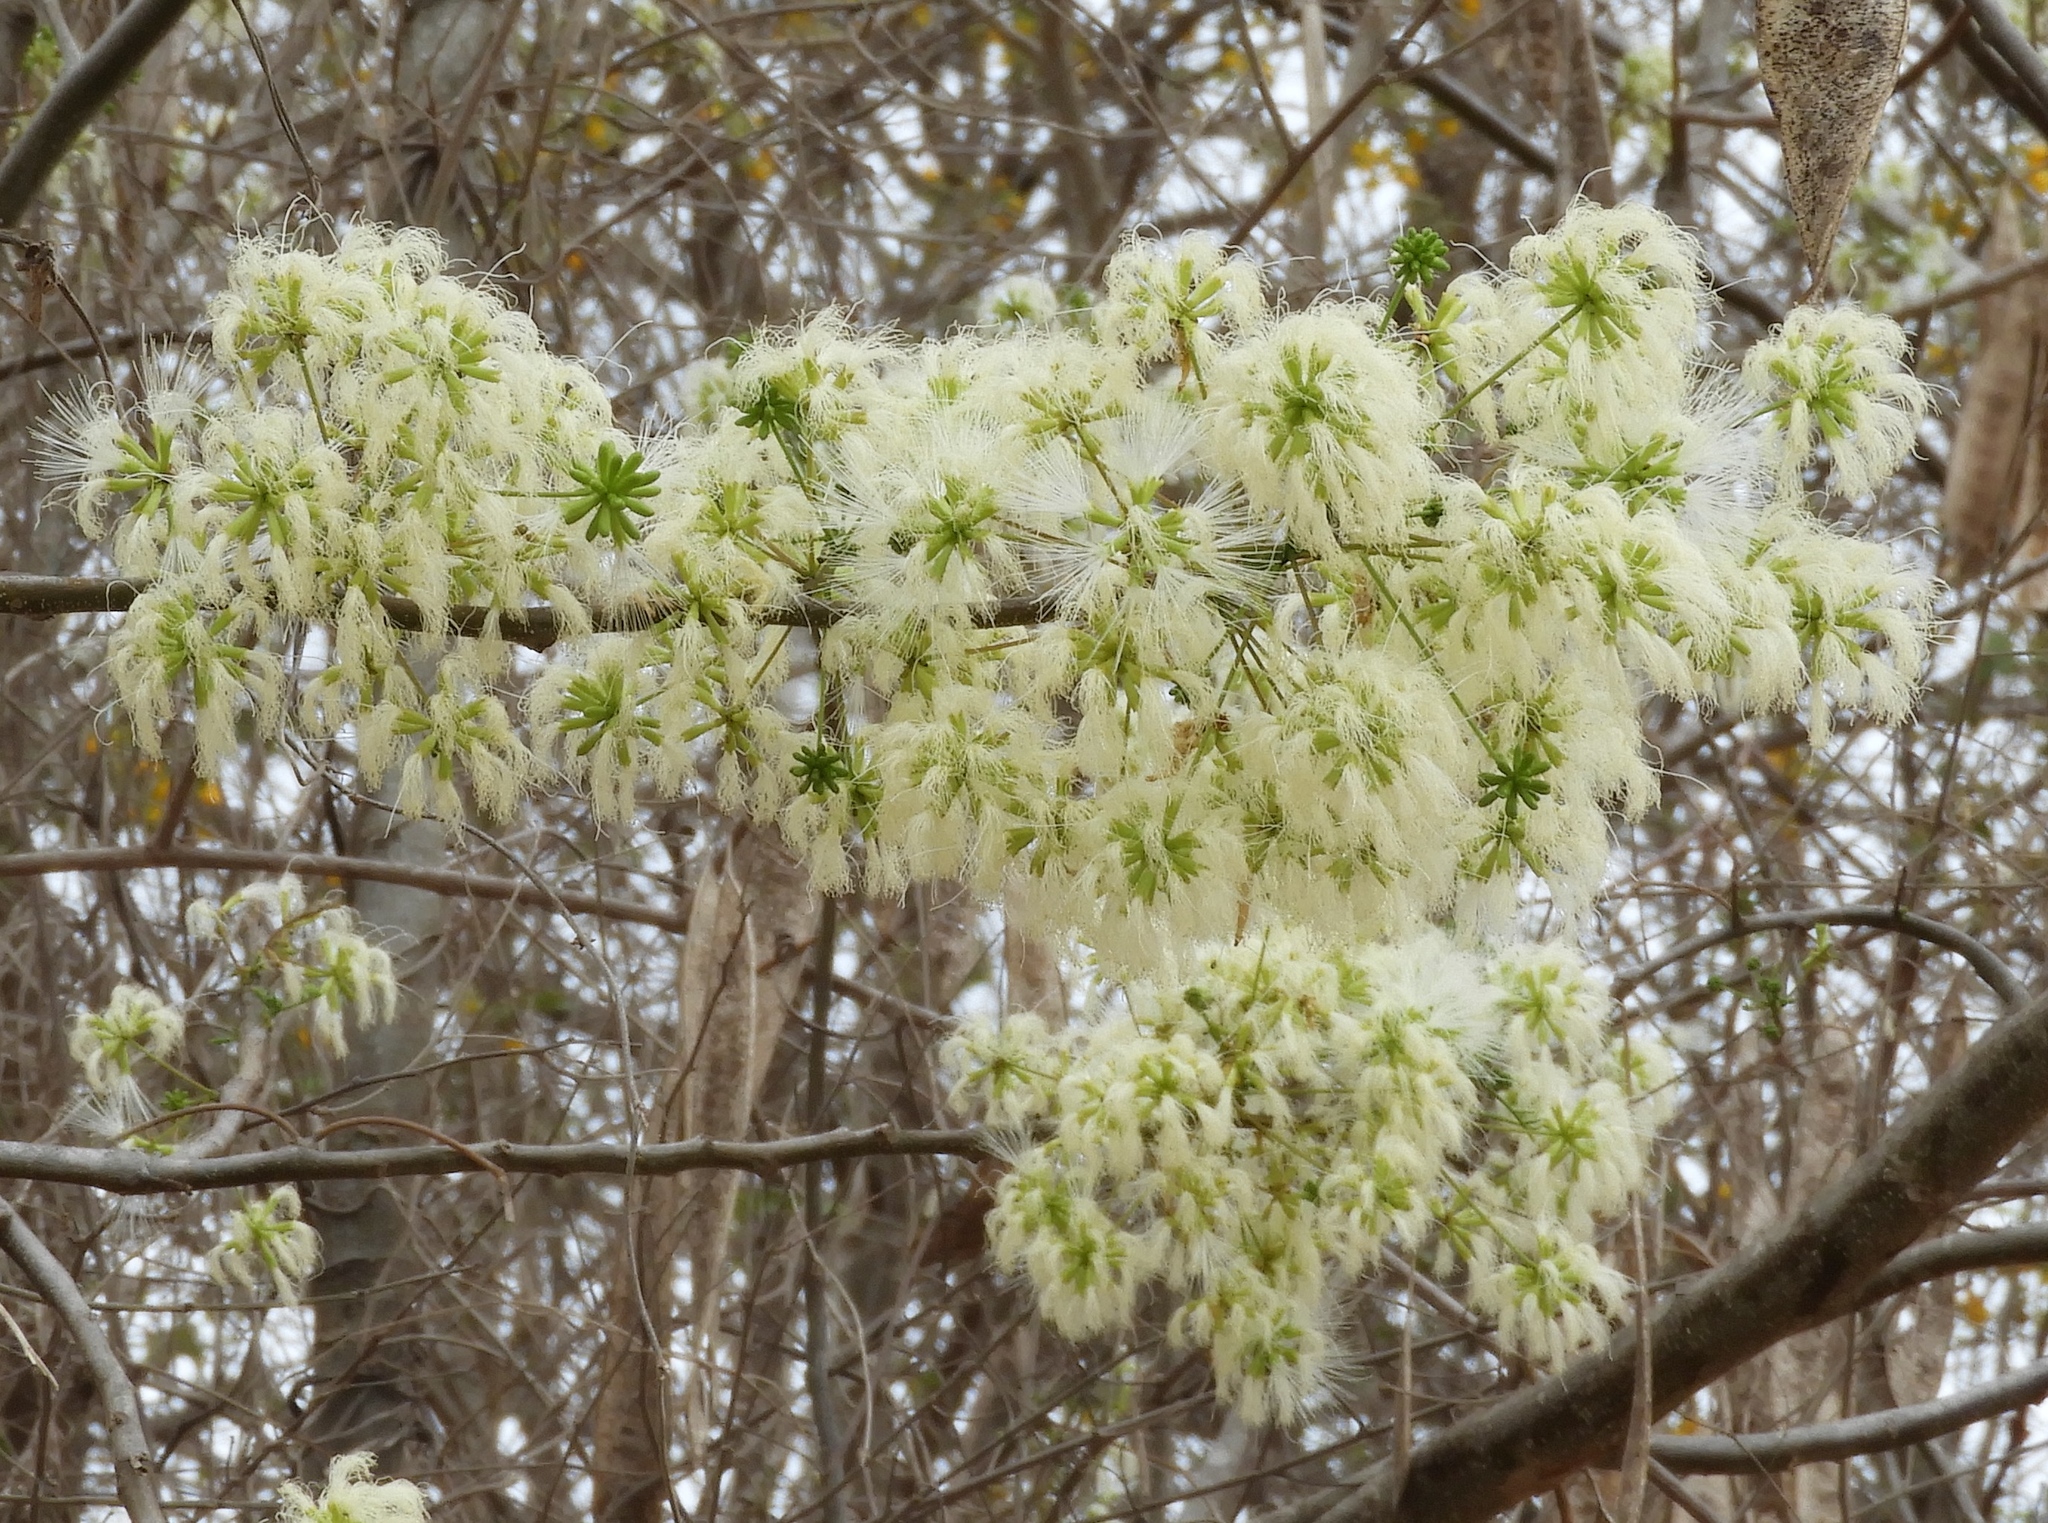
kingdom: Plantae
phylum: Tracheophyta
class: Magnoliopsida
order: Fabales
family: Fabaceae
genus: Albizia
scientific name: Albizia occidentalis
